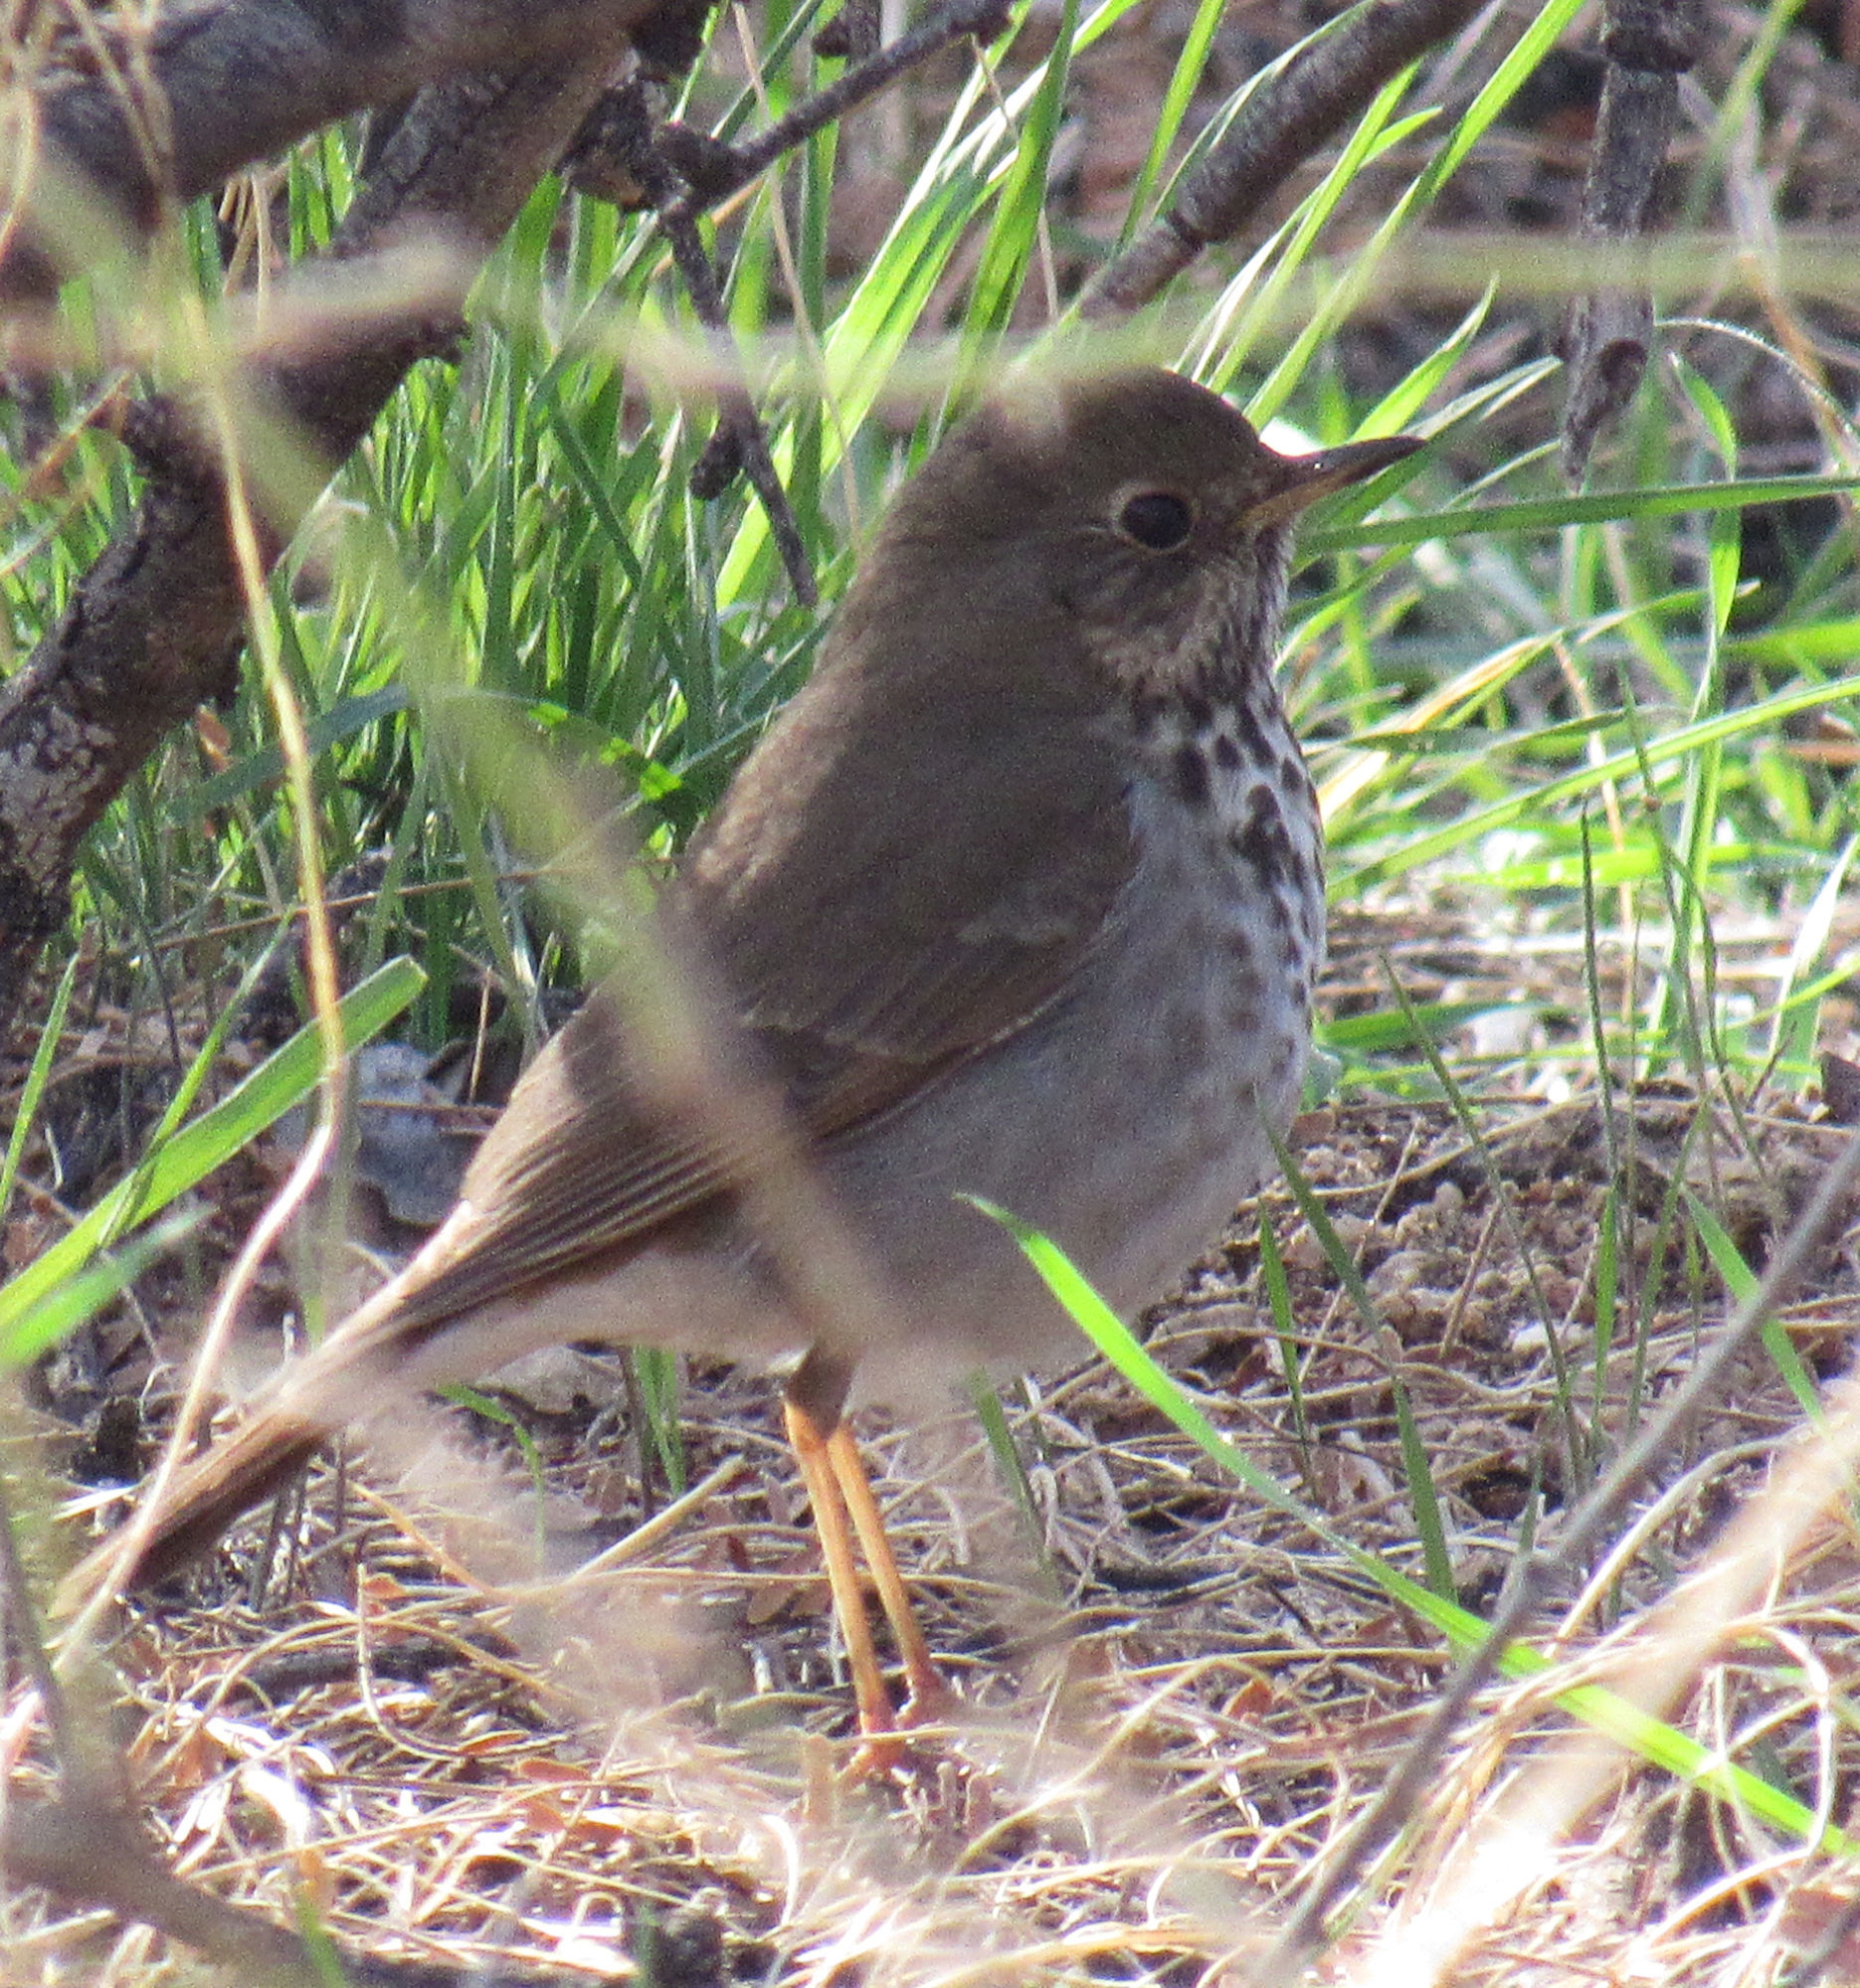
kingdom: Animalia
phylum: Chordata
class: Aves
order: Passeriformes
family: Turdidae
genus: Catharus
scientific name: Catharus guttatus
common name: Hermit thrush
